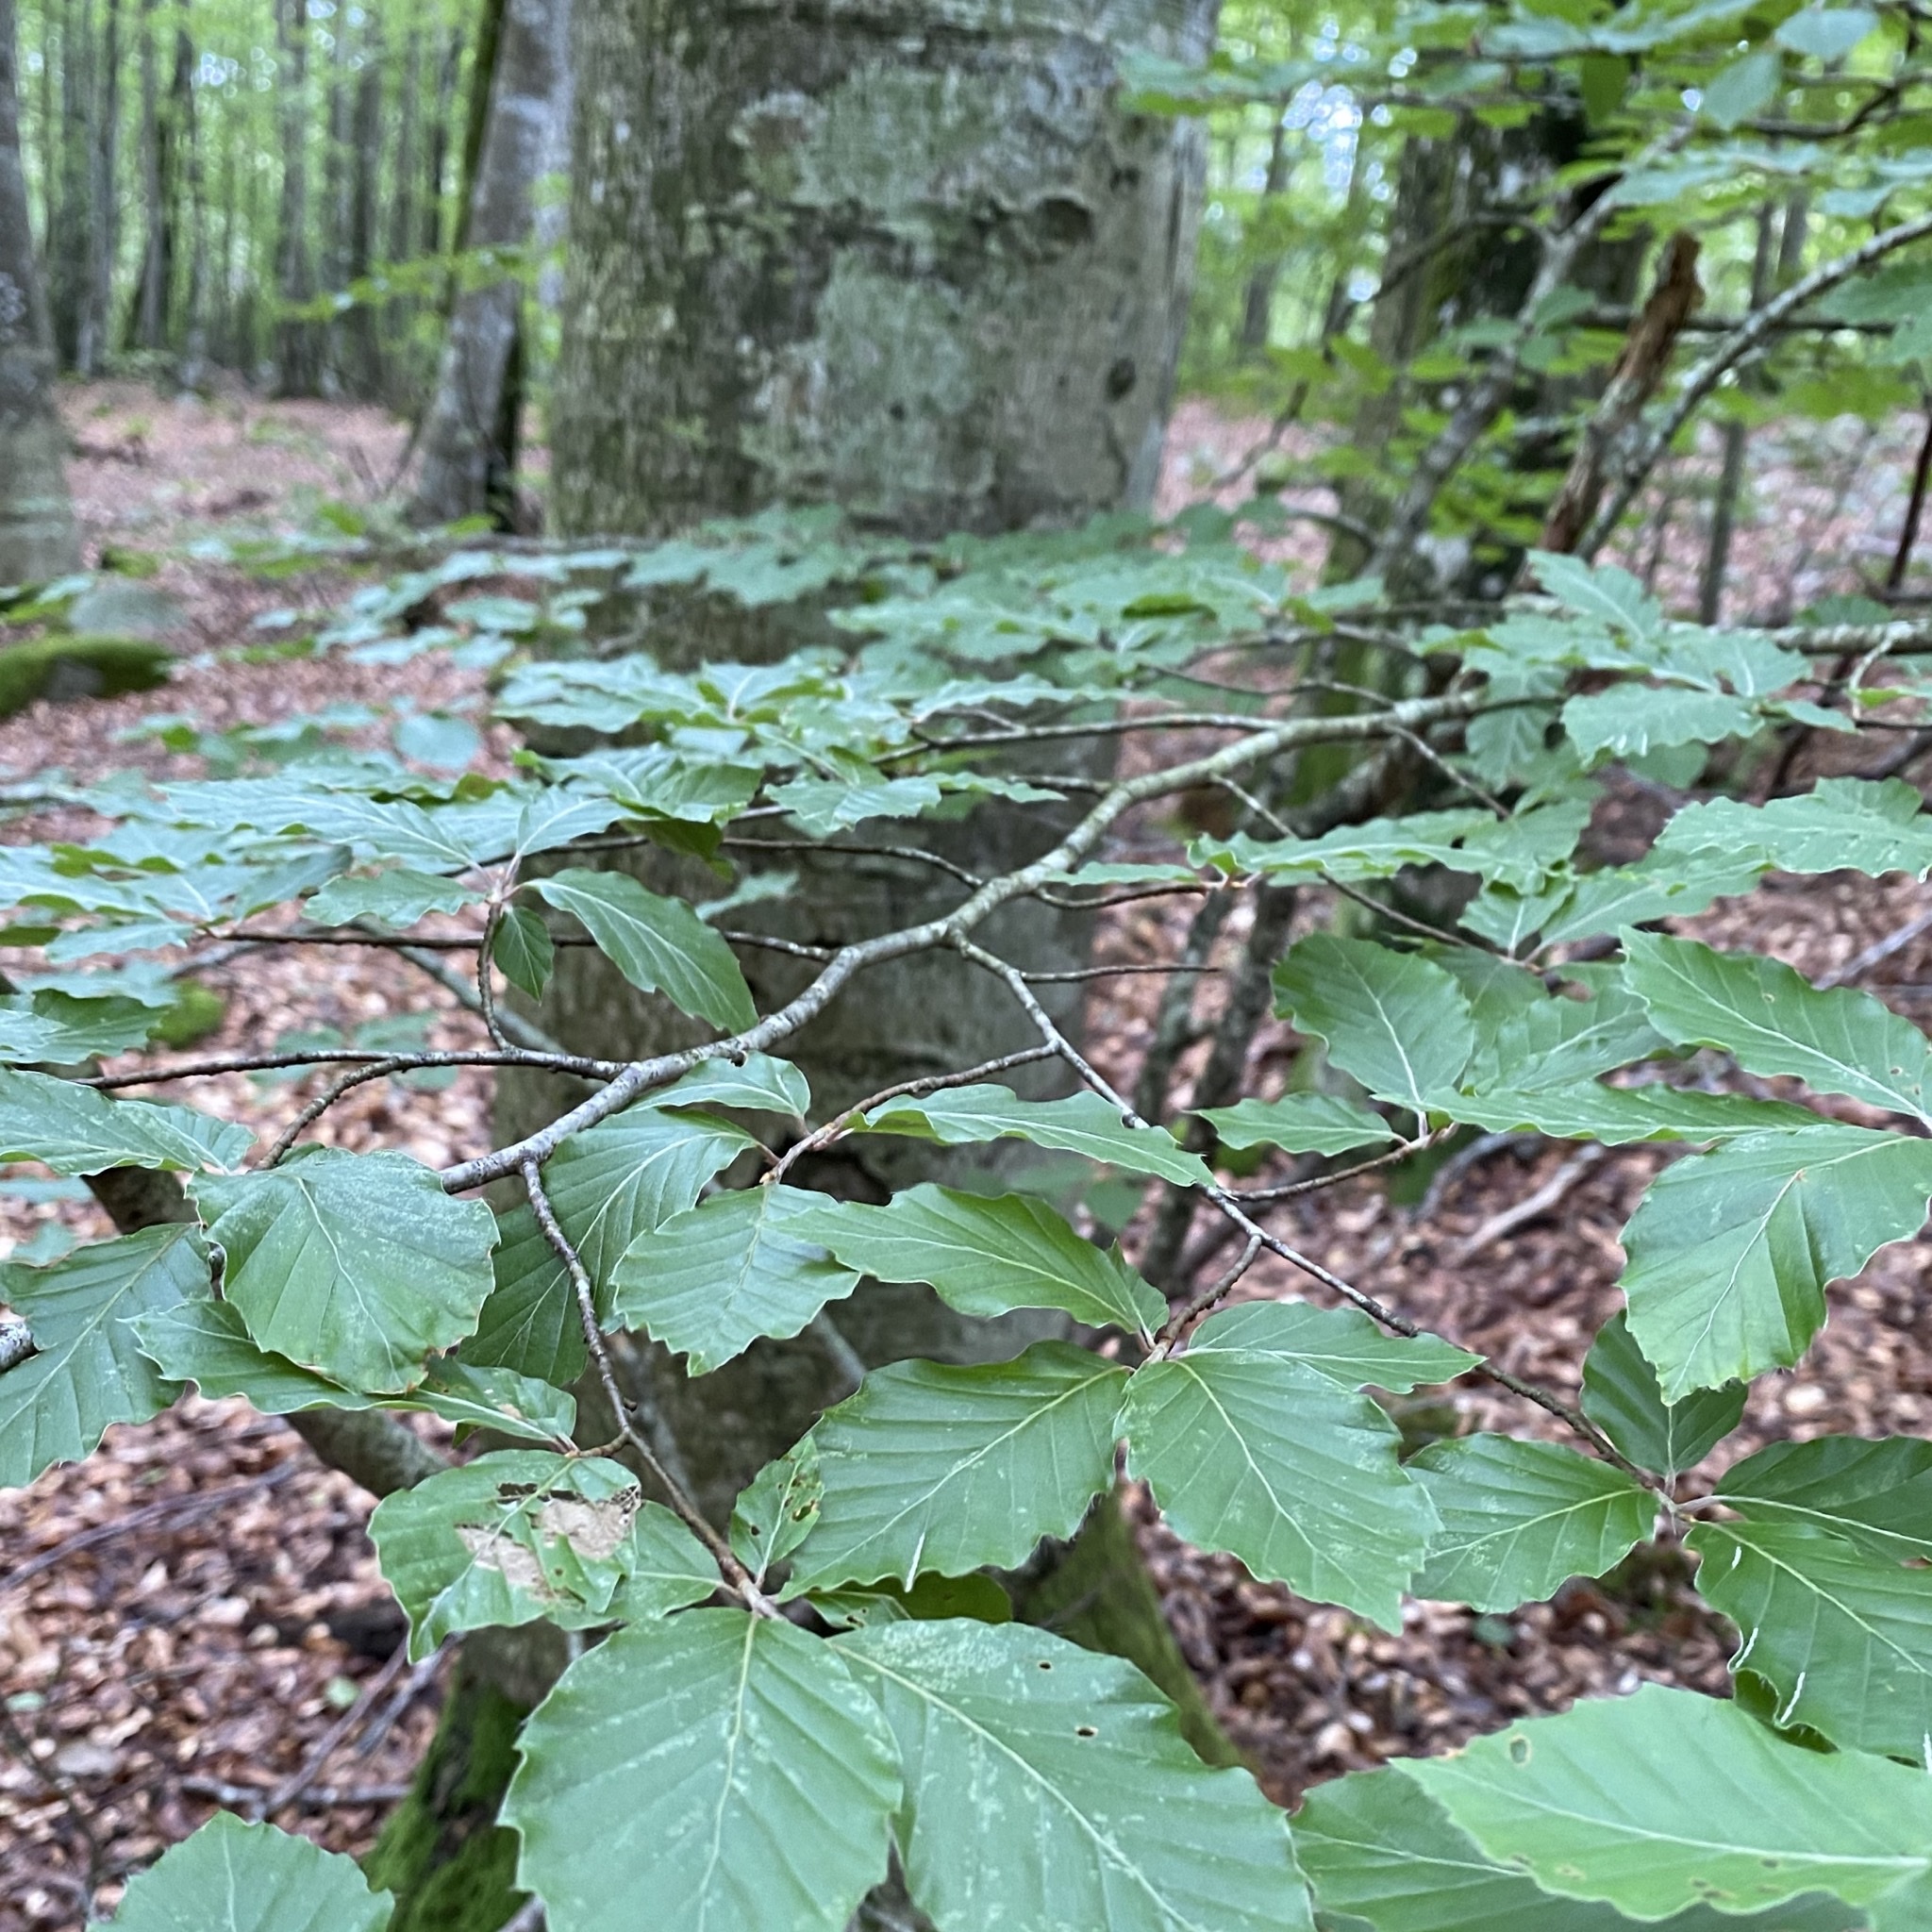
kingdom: Plantae
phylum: Tracheophyta
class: Magnoliopsida
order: Fagales
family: Fagaceae
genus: Fagus
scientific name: Fagus sylvatica
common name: Beech
